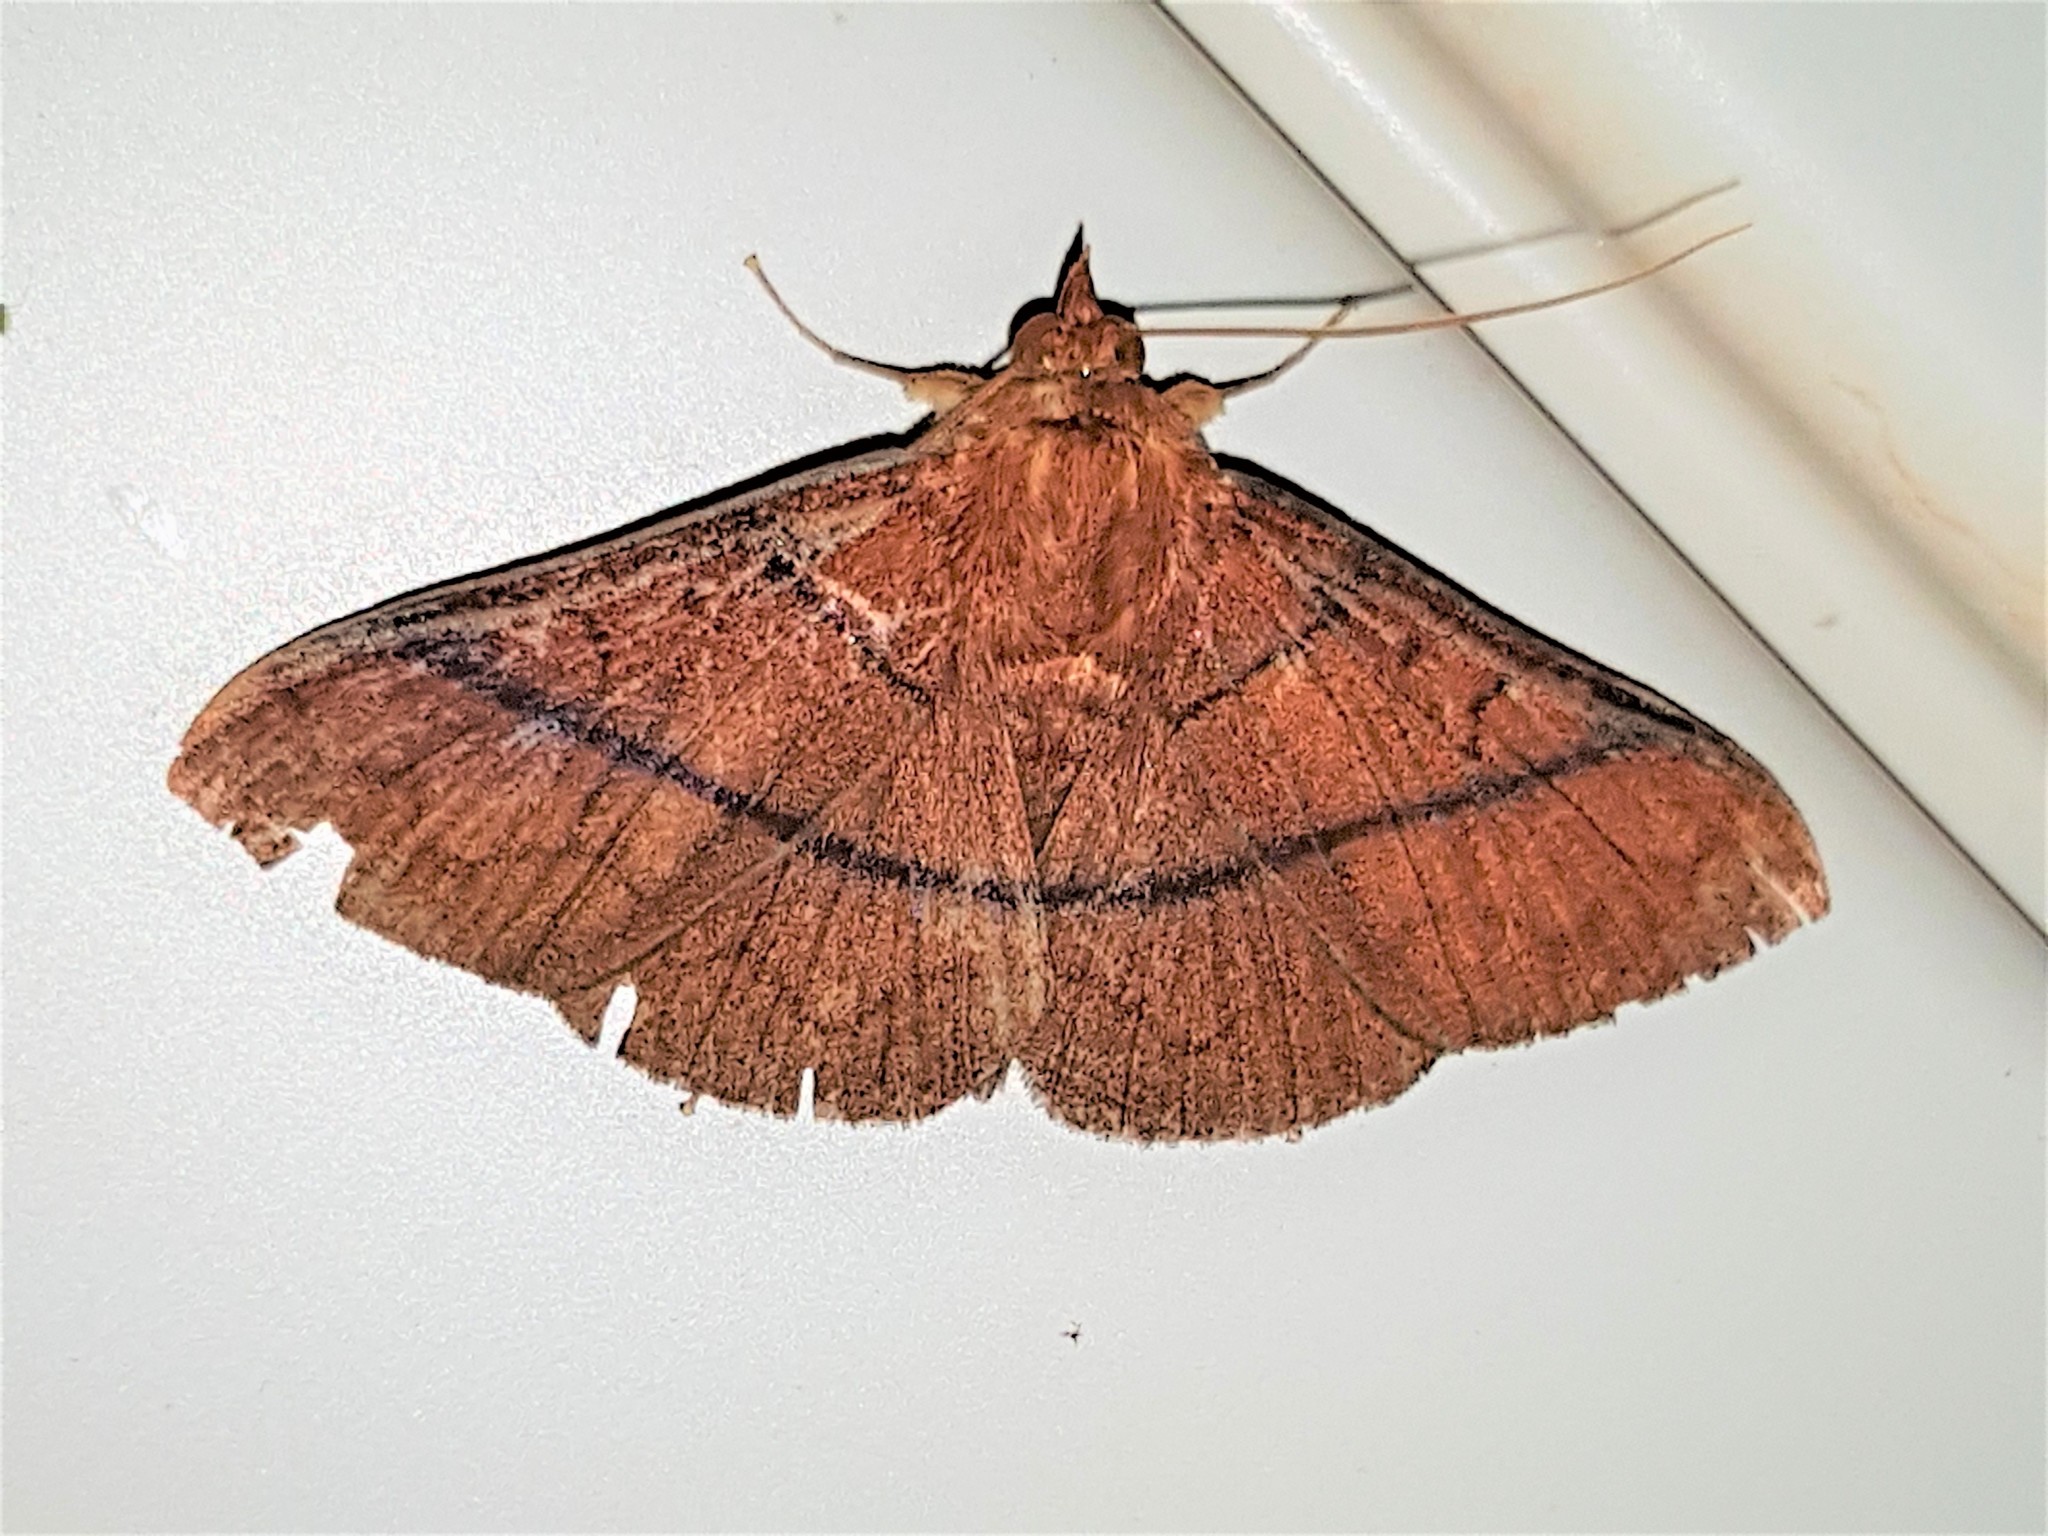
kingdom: Animalia
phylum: Arthropoda
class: Insecta
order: Lepidoptera
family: Erebidae
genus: Epitausa
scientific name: Epitausa rubrifusca
